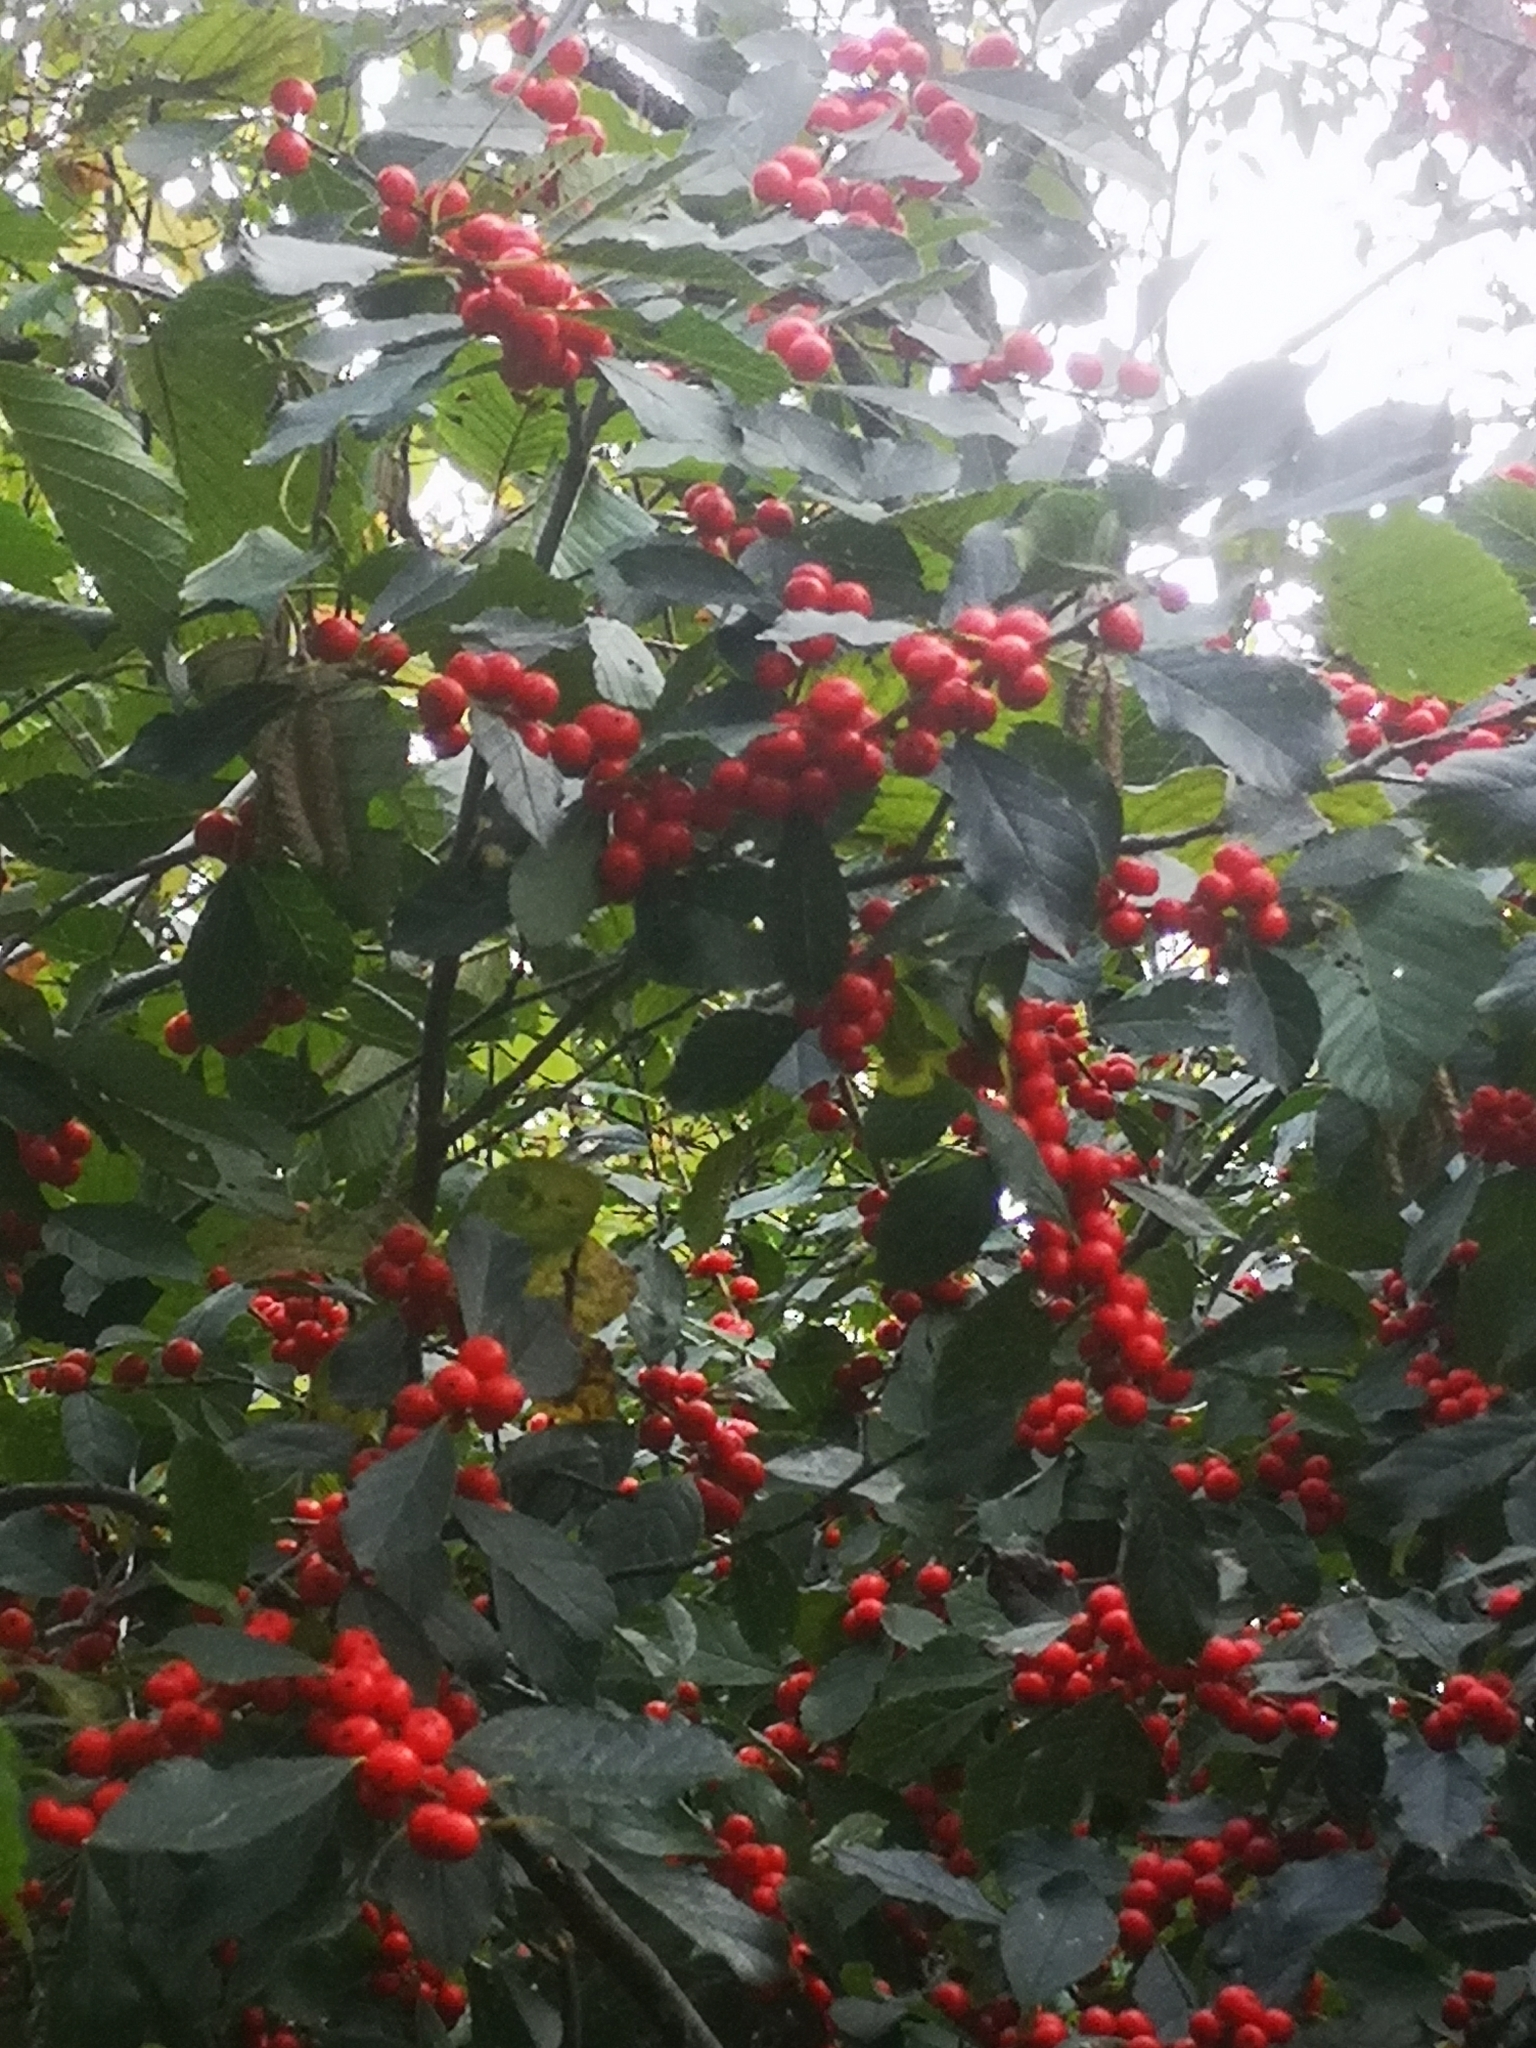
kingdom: Plantae
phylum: Tracheophyta
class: Magnoliopsida
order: Aquifoliales
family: Aquifoliaceae
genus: Ilex
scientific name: Ilex verticillata
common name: Virginia winterberry
